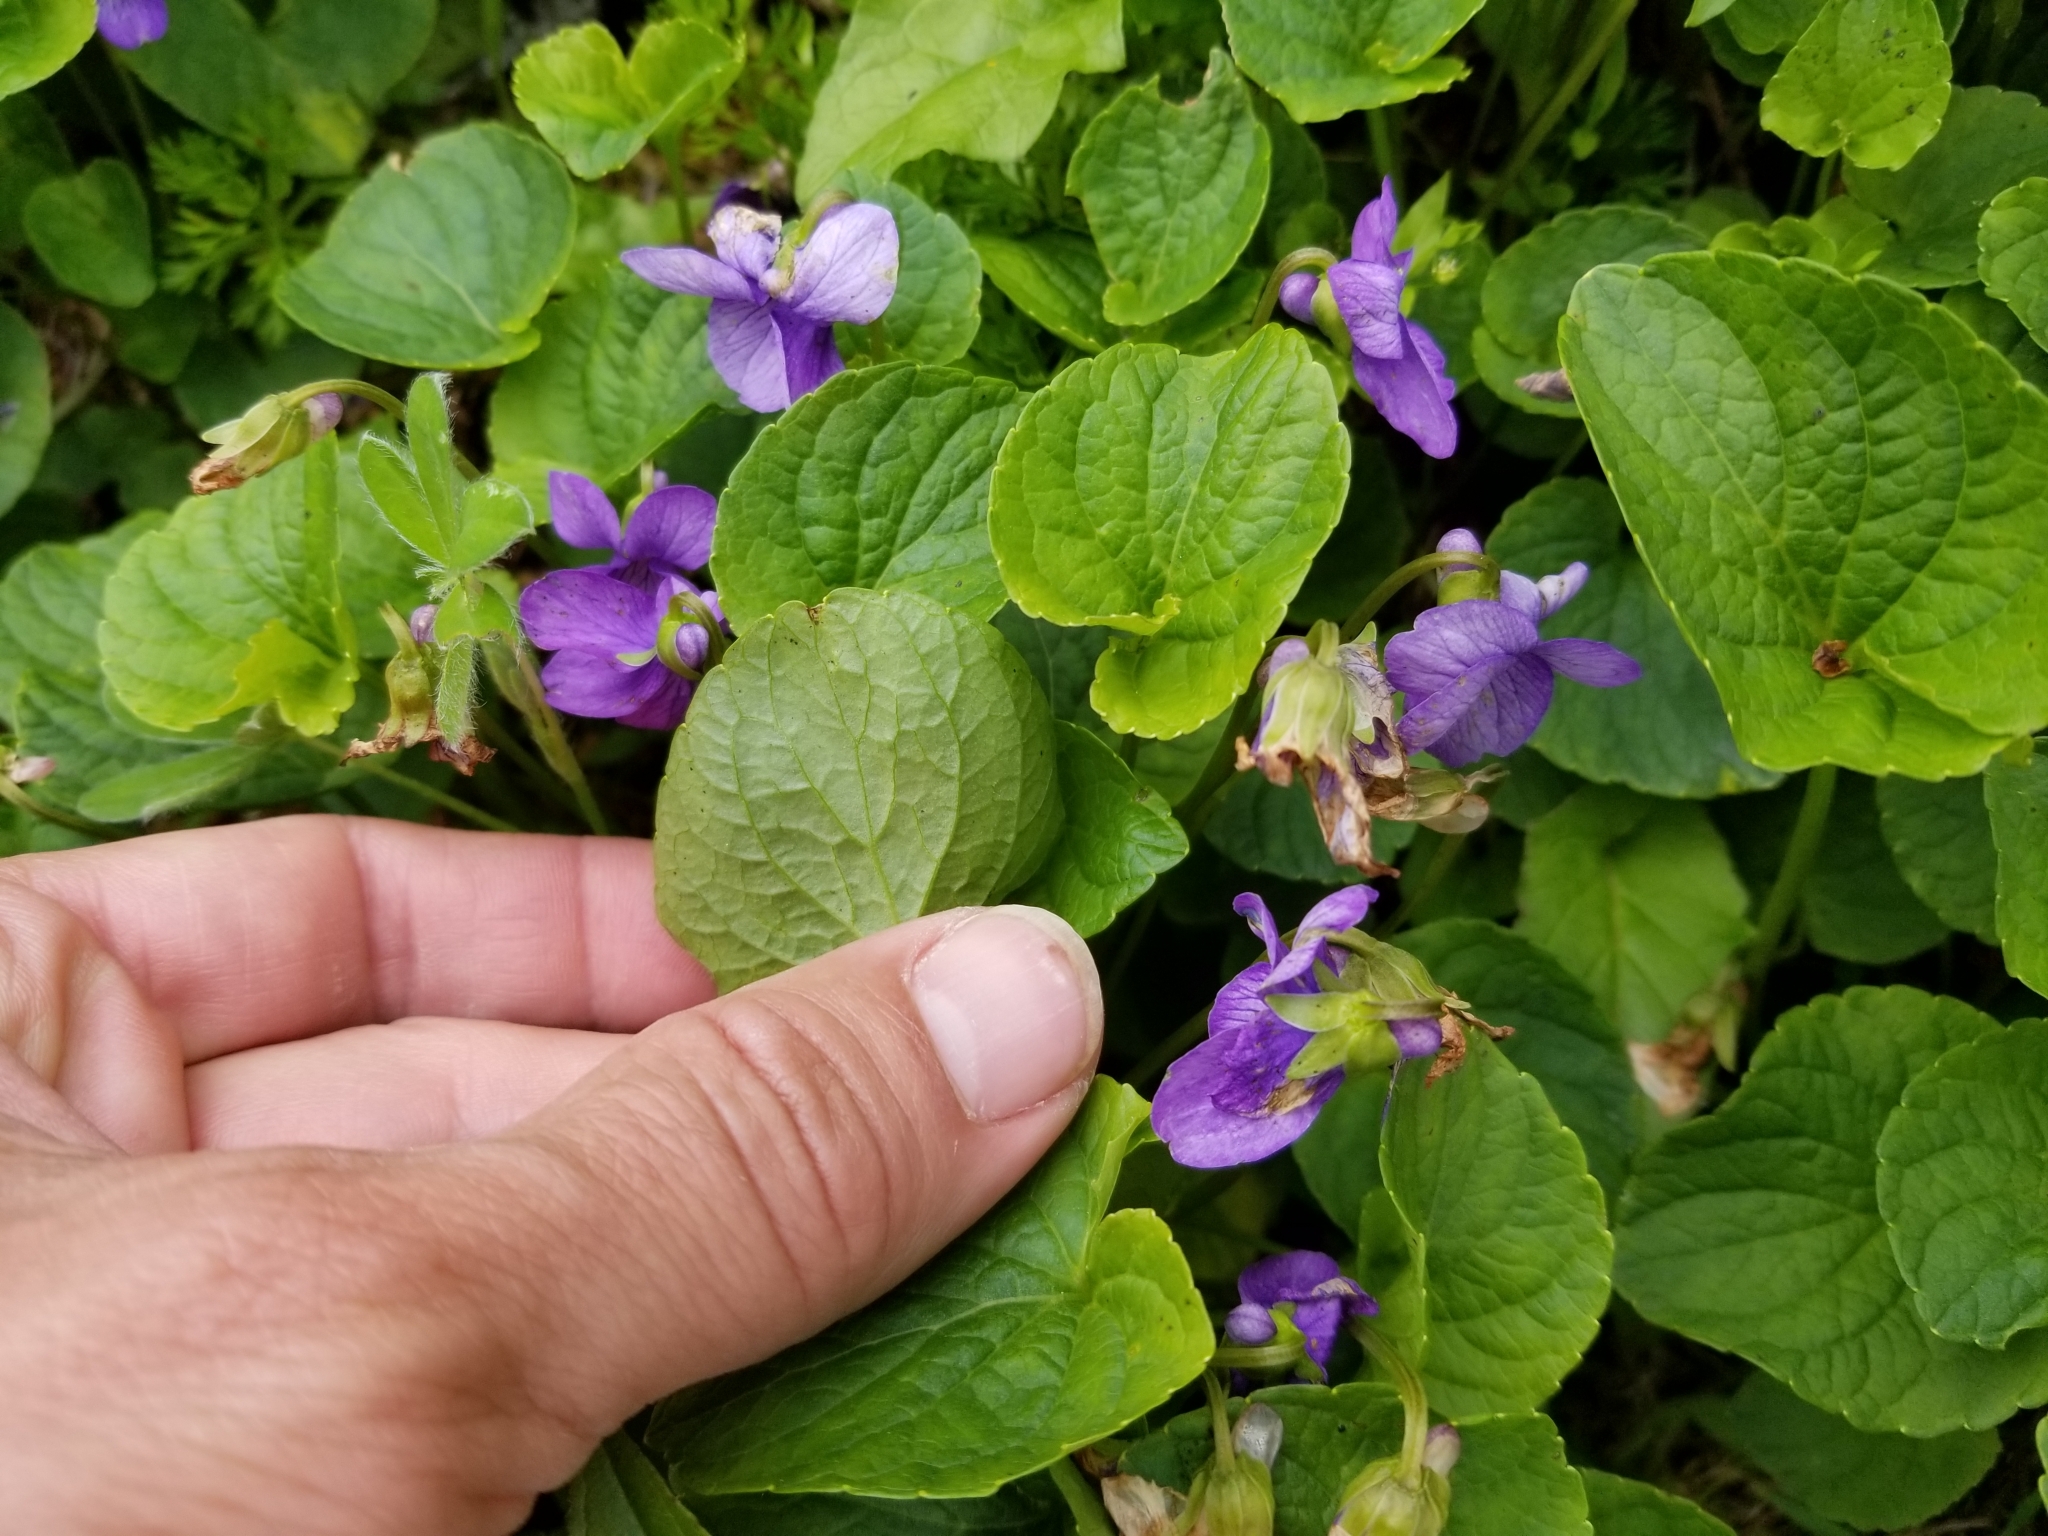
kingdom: Plantae
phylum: Tracheophyta
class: Magnoliopsida
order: Malpighiales
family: Violaceae
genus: Viola
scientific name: Viola langsdorffii
